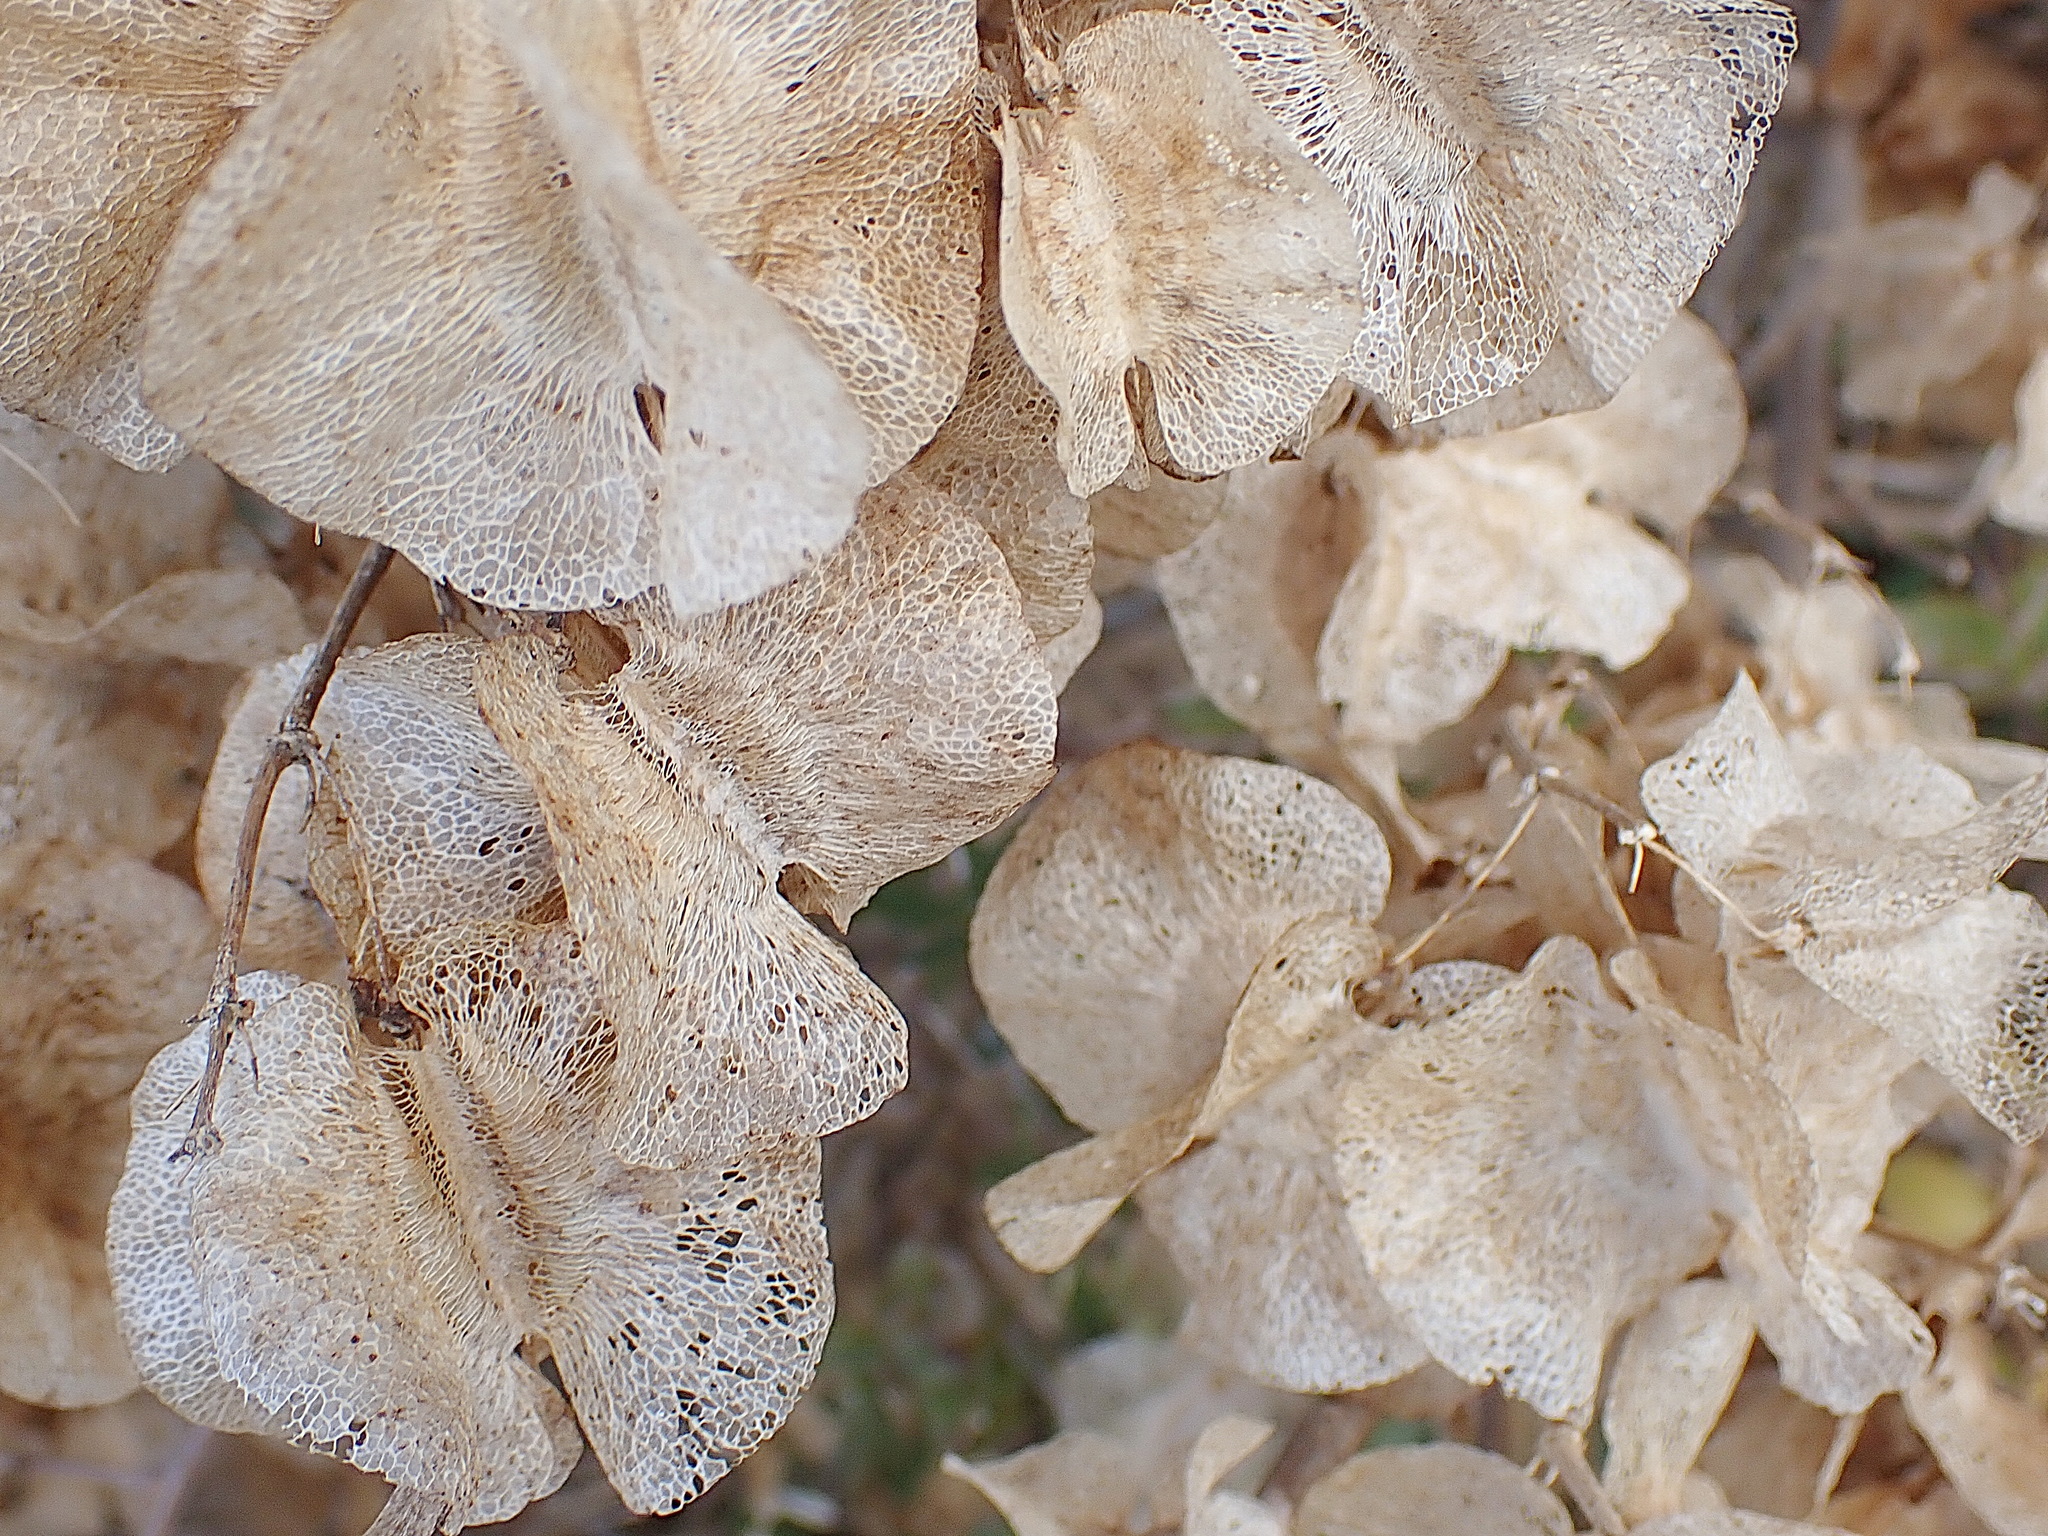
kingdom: Plantae
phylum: Tracheophyta
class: Magnoliopsida
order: Zygophyllales
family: Zygophyllaceae
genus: Roepera
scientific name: Roepera morgsana
